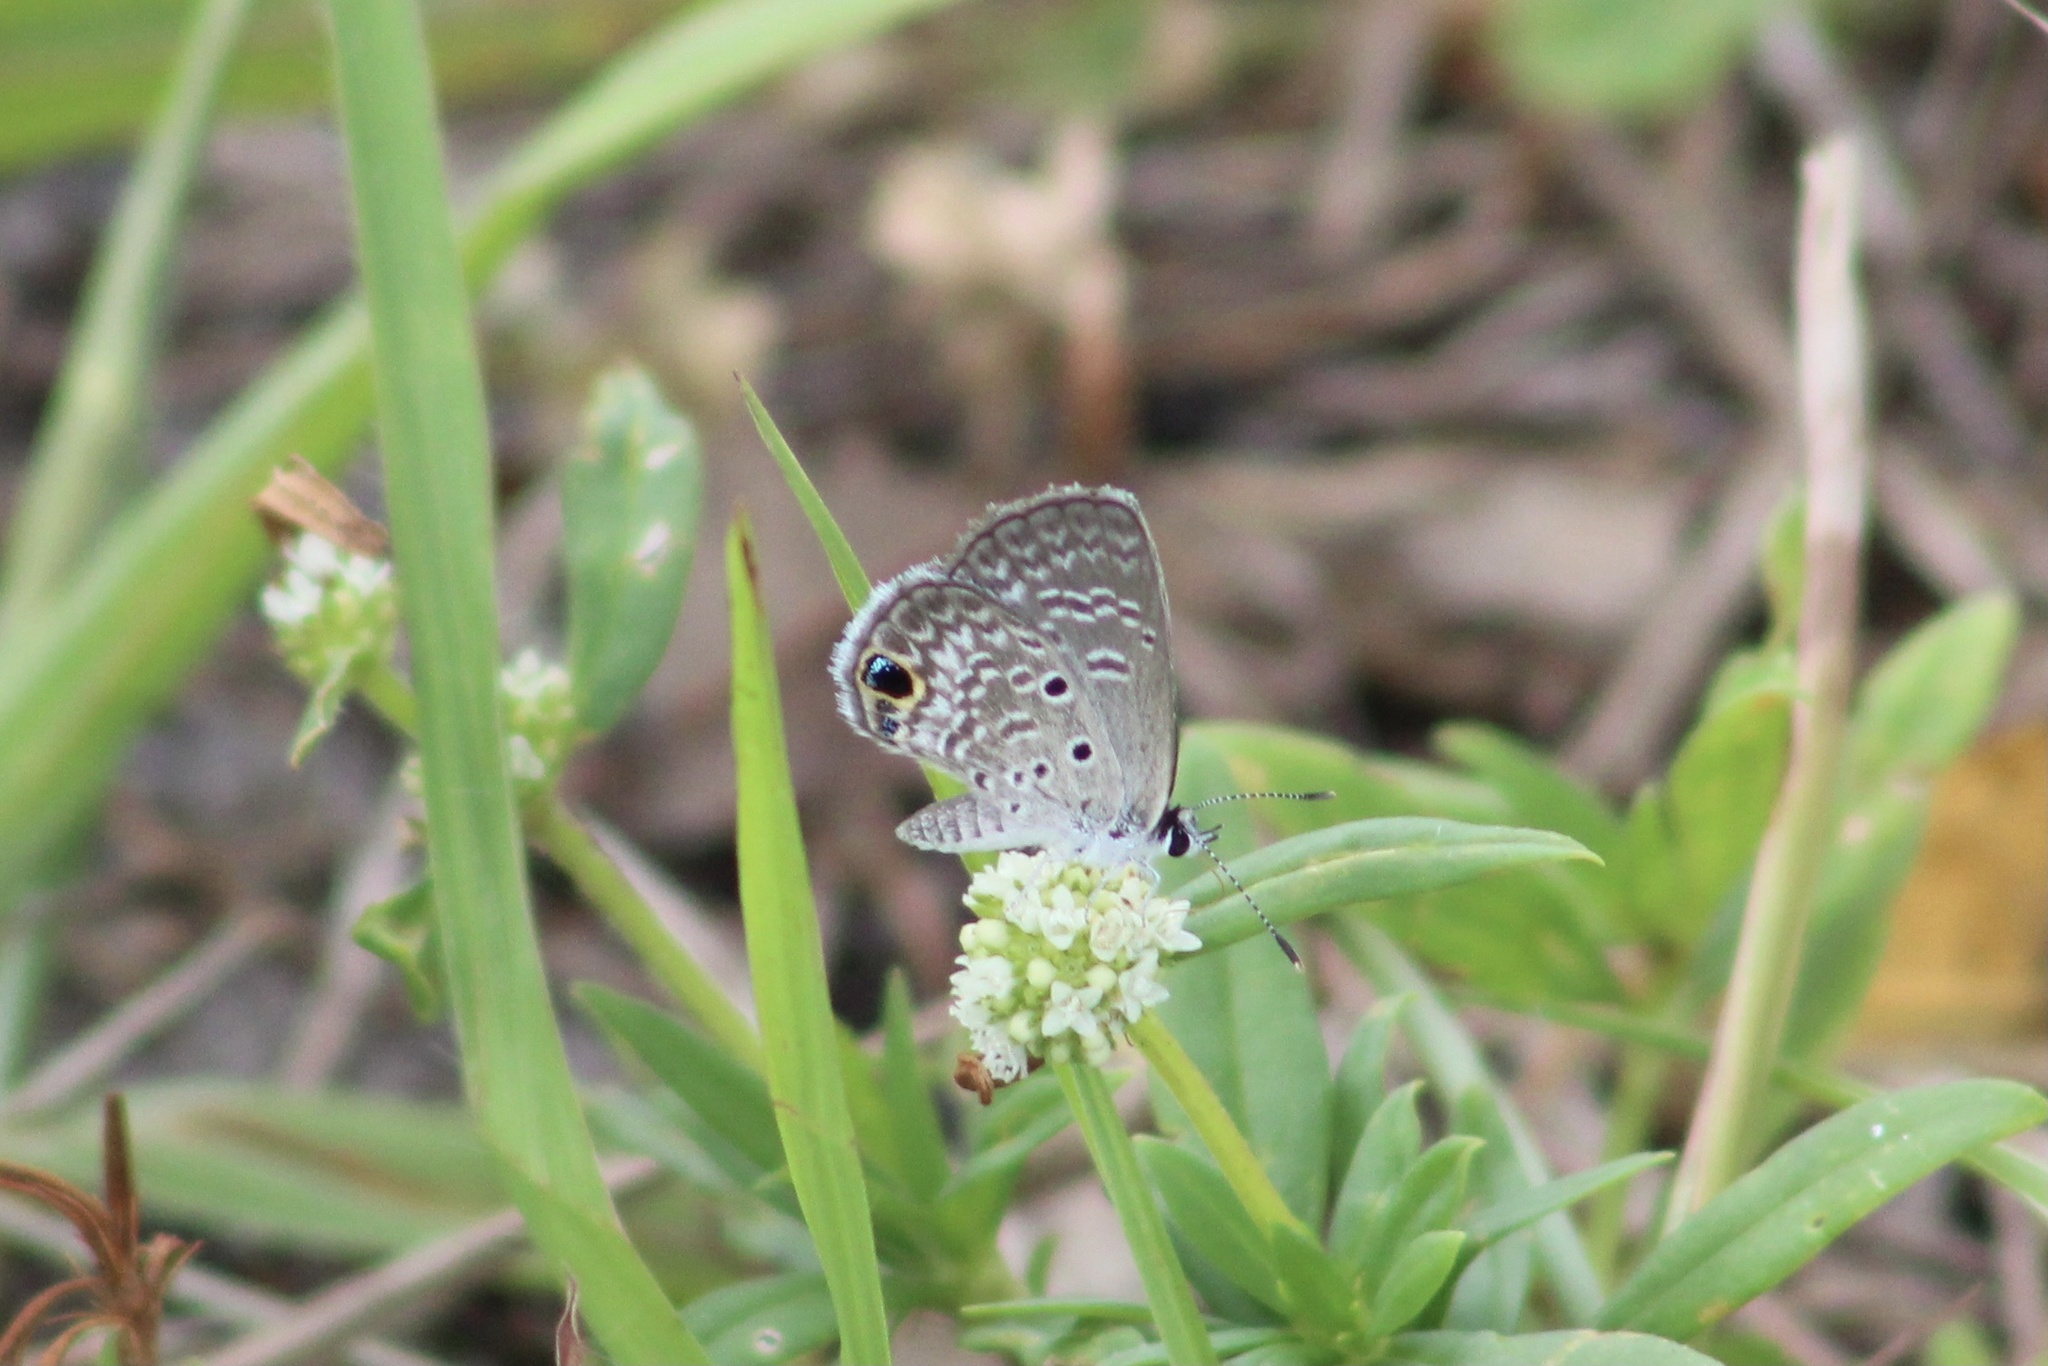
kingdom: Animalia
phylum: Arthropoda
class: Insecta
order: Lepidoptera
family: Lycaenidae
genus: Hemiargus
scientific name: Hemiargus ceraunus
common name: Ceraunus blue
